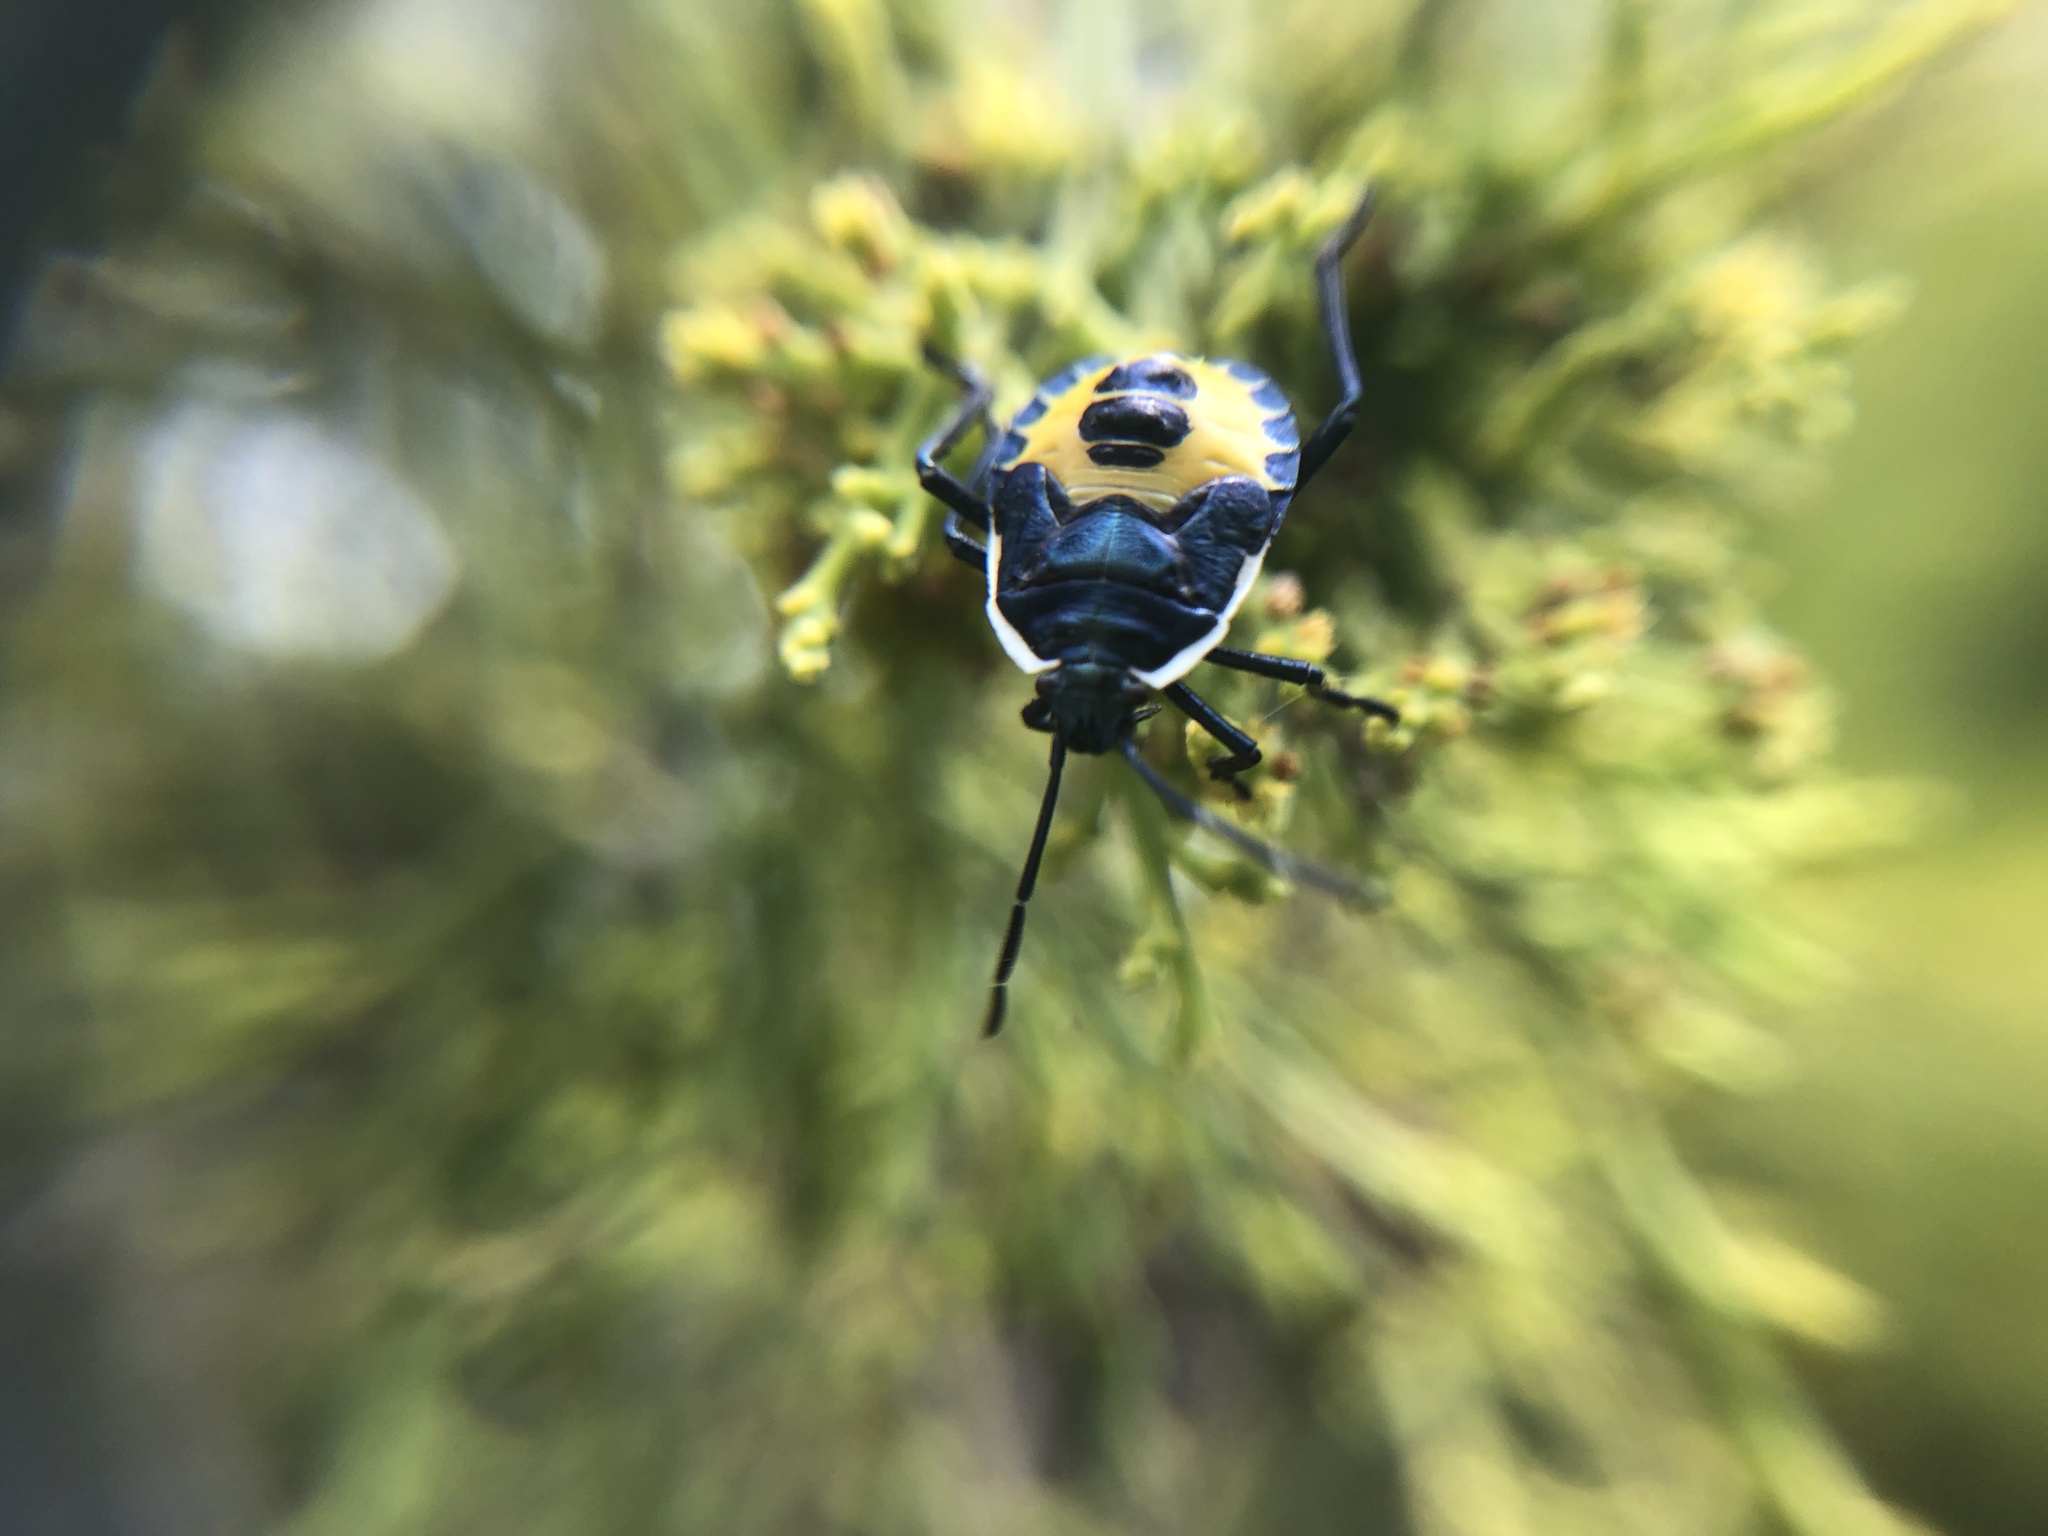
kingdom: Animalia
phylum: Arthropoda
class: Insecta
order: Hemiptera
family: Pentatomidae
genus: Commius
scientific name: Commius
